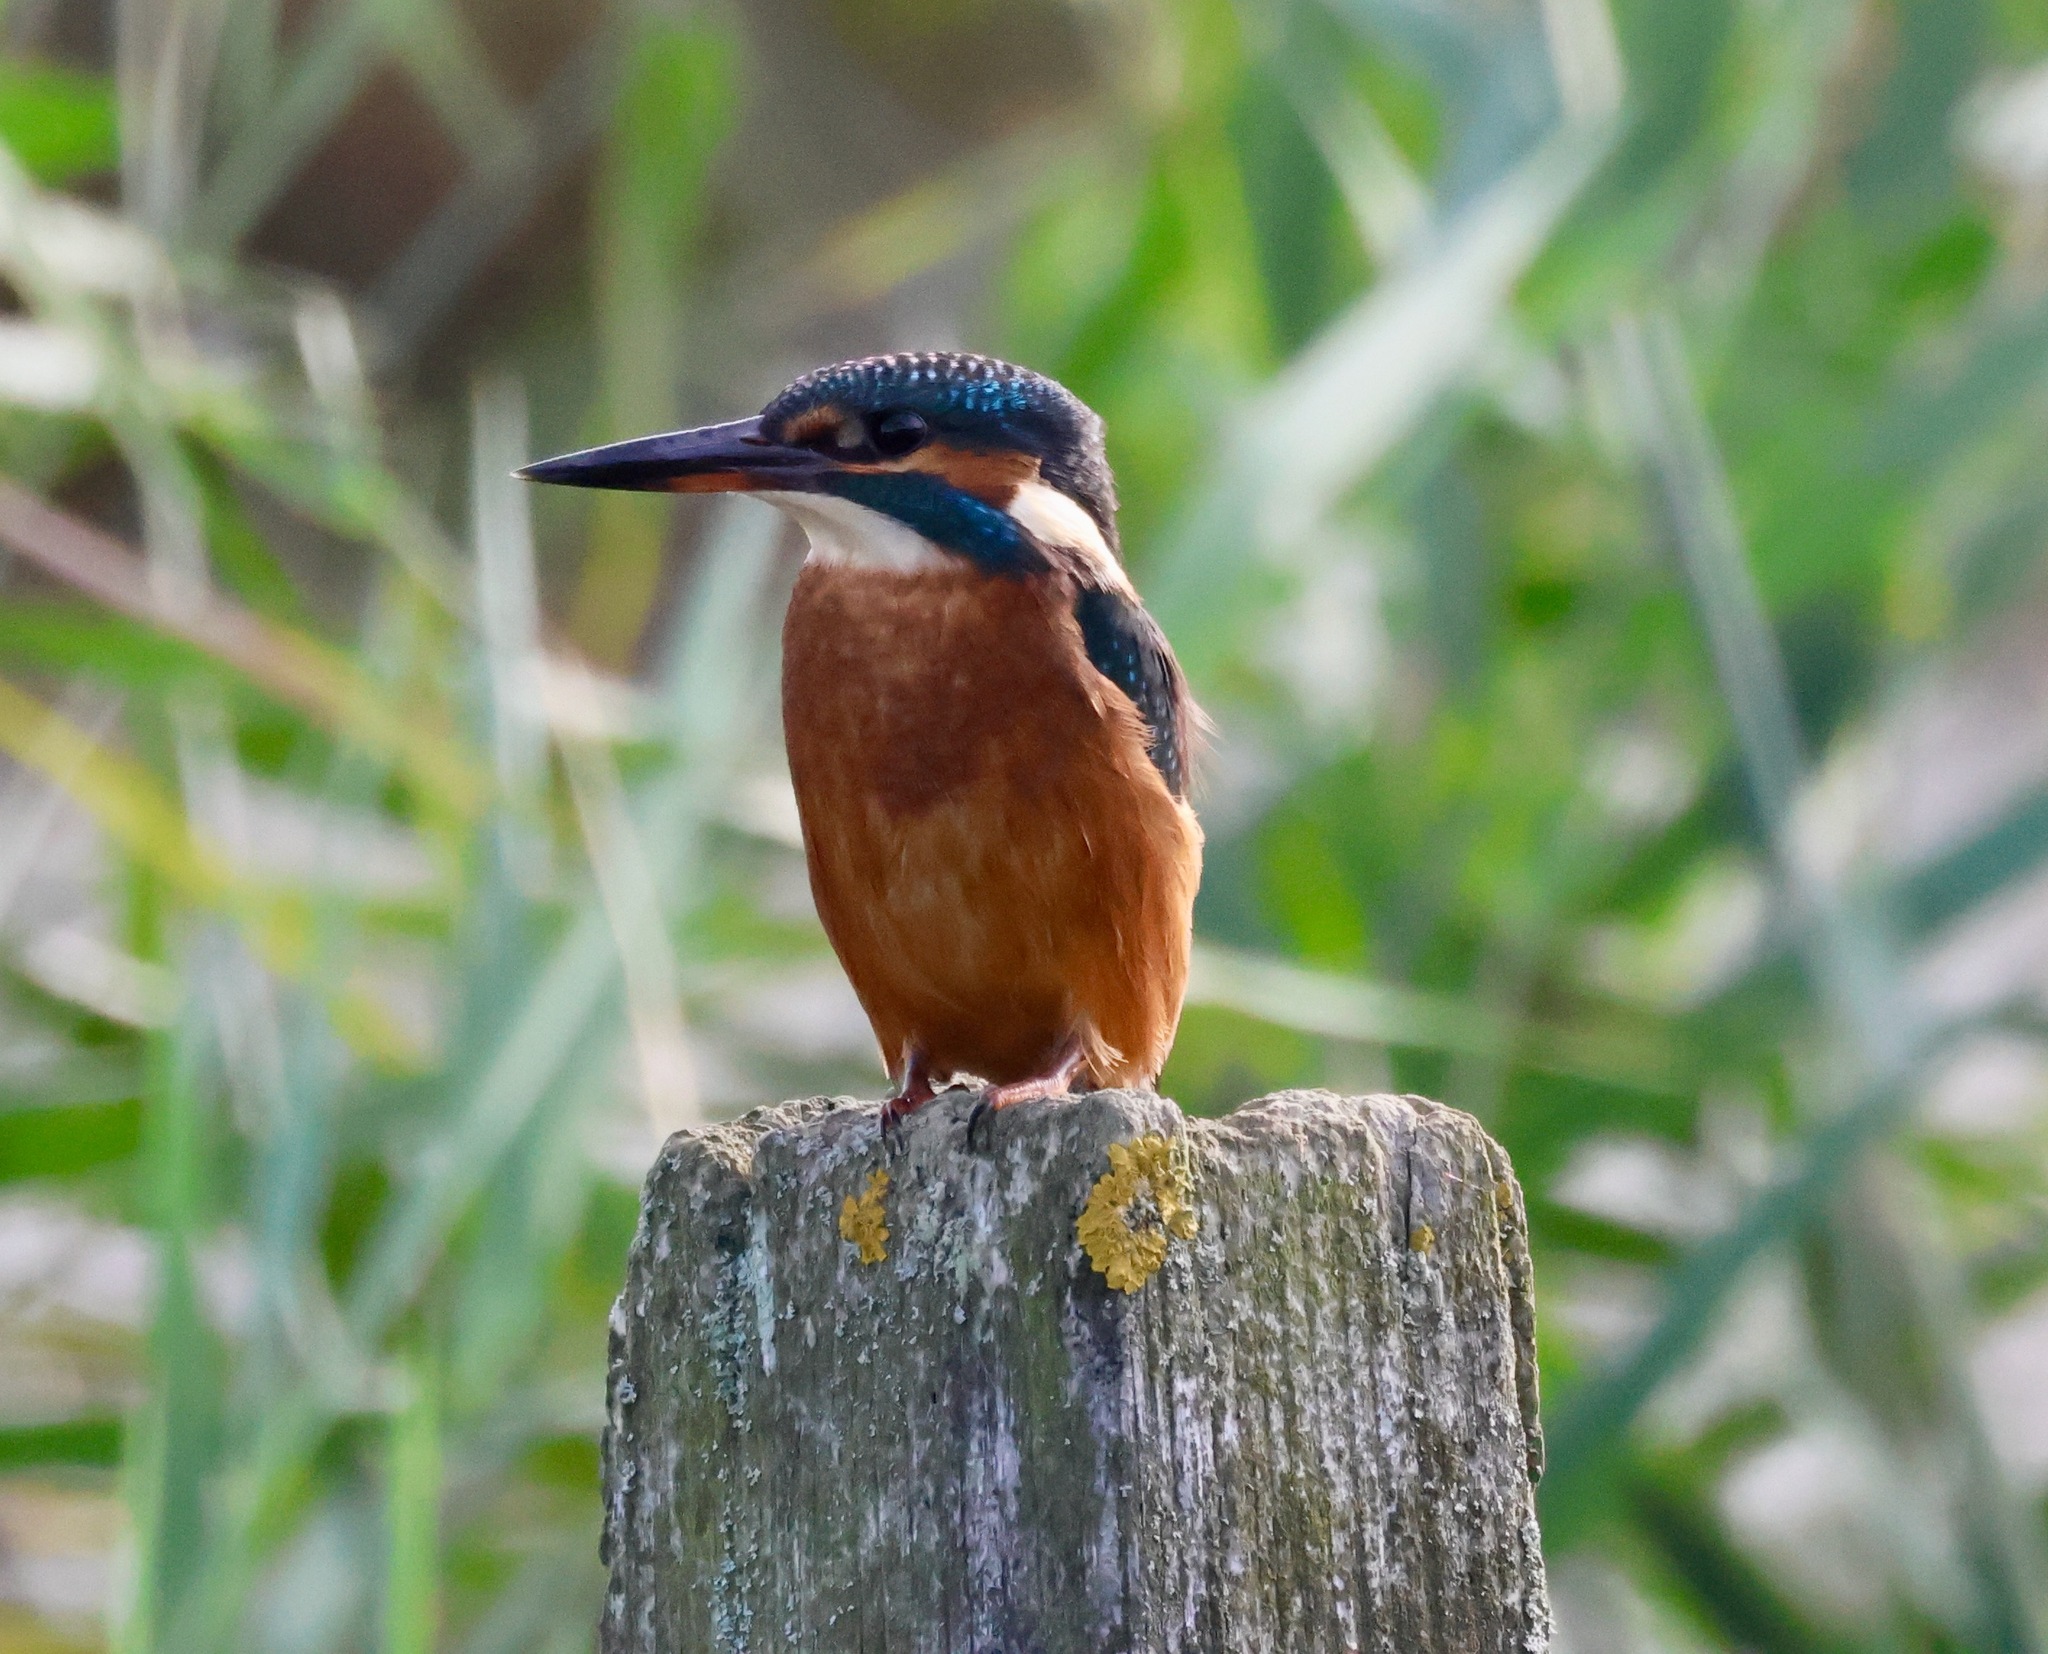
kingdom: Animalia
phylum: Chordata
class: Aves
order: Coraciiformes
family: Alcedinidae
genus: Alcedo
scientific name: Alcedo atthis
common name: Common kingfisher
